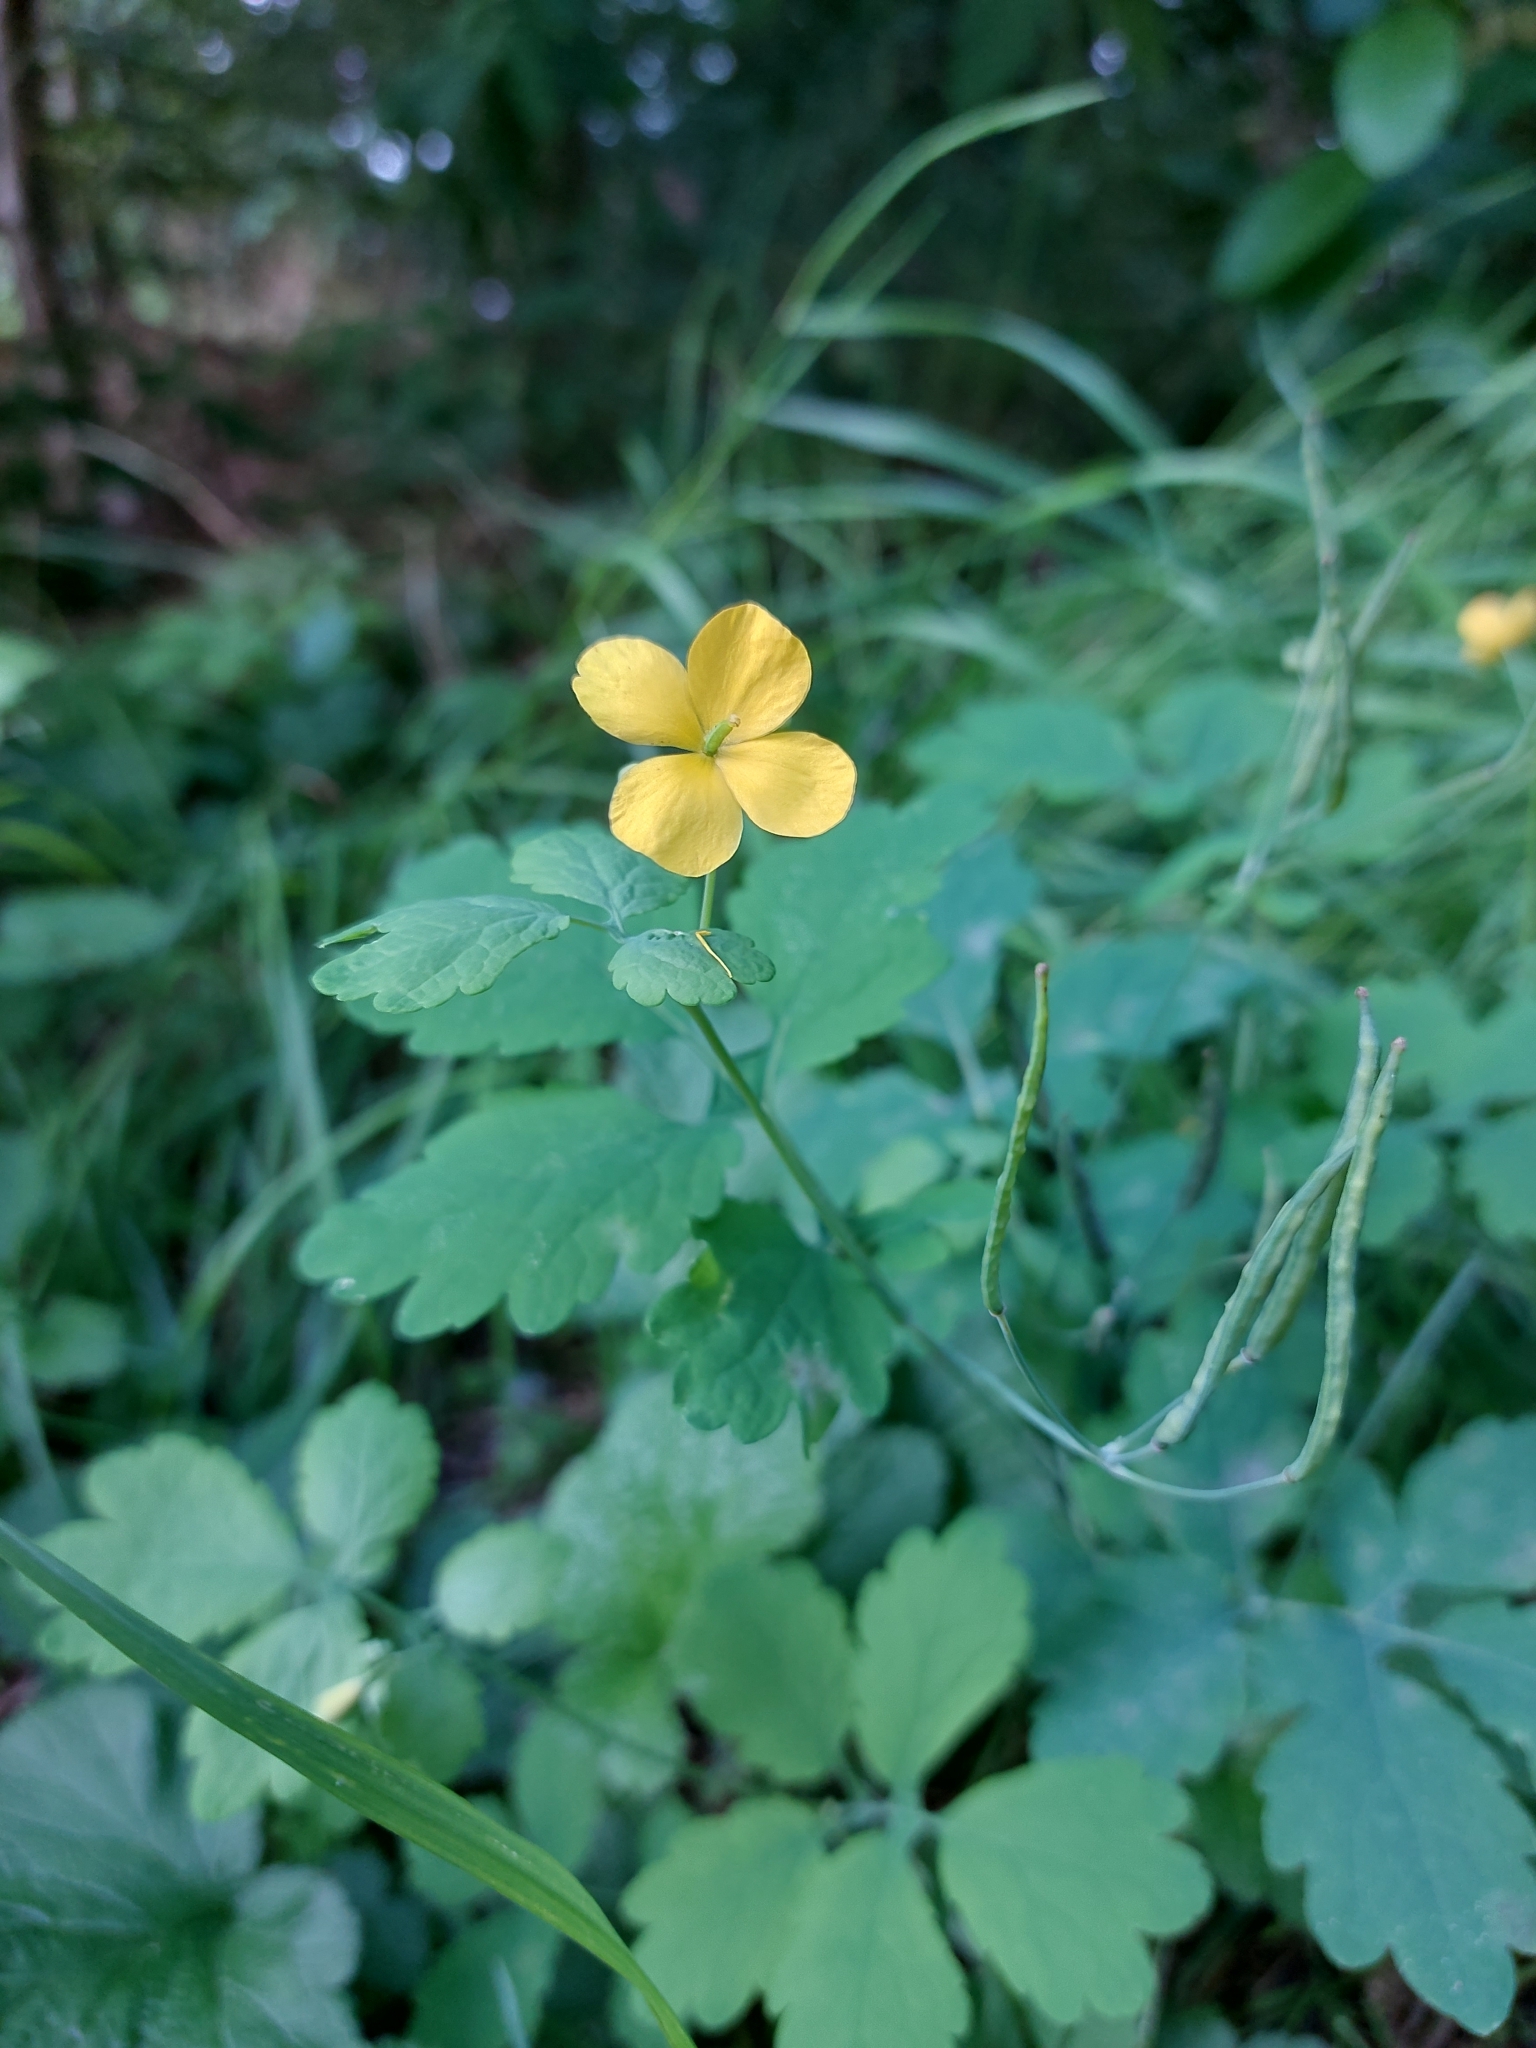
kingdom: Plantae
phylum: Tracheophyta
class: Magnoliopsida
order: Ranunculales
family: Papaveraceae
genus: Chelidonium
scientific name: Chelidonium majus
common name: Greater celandine
